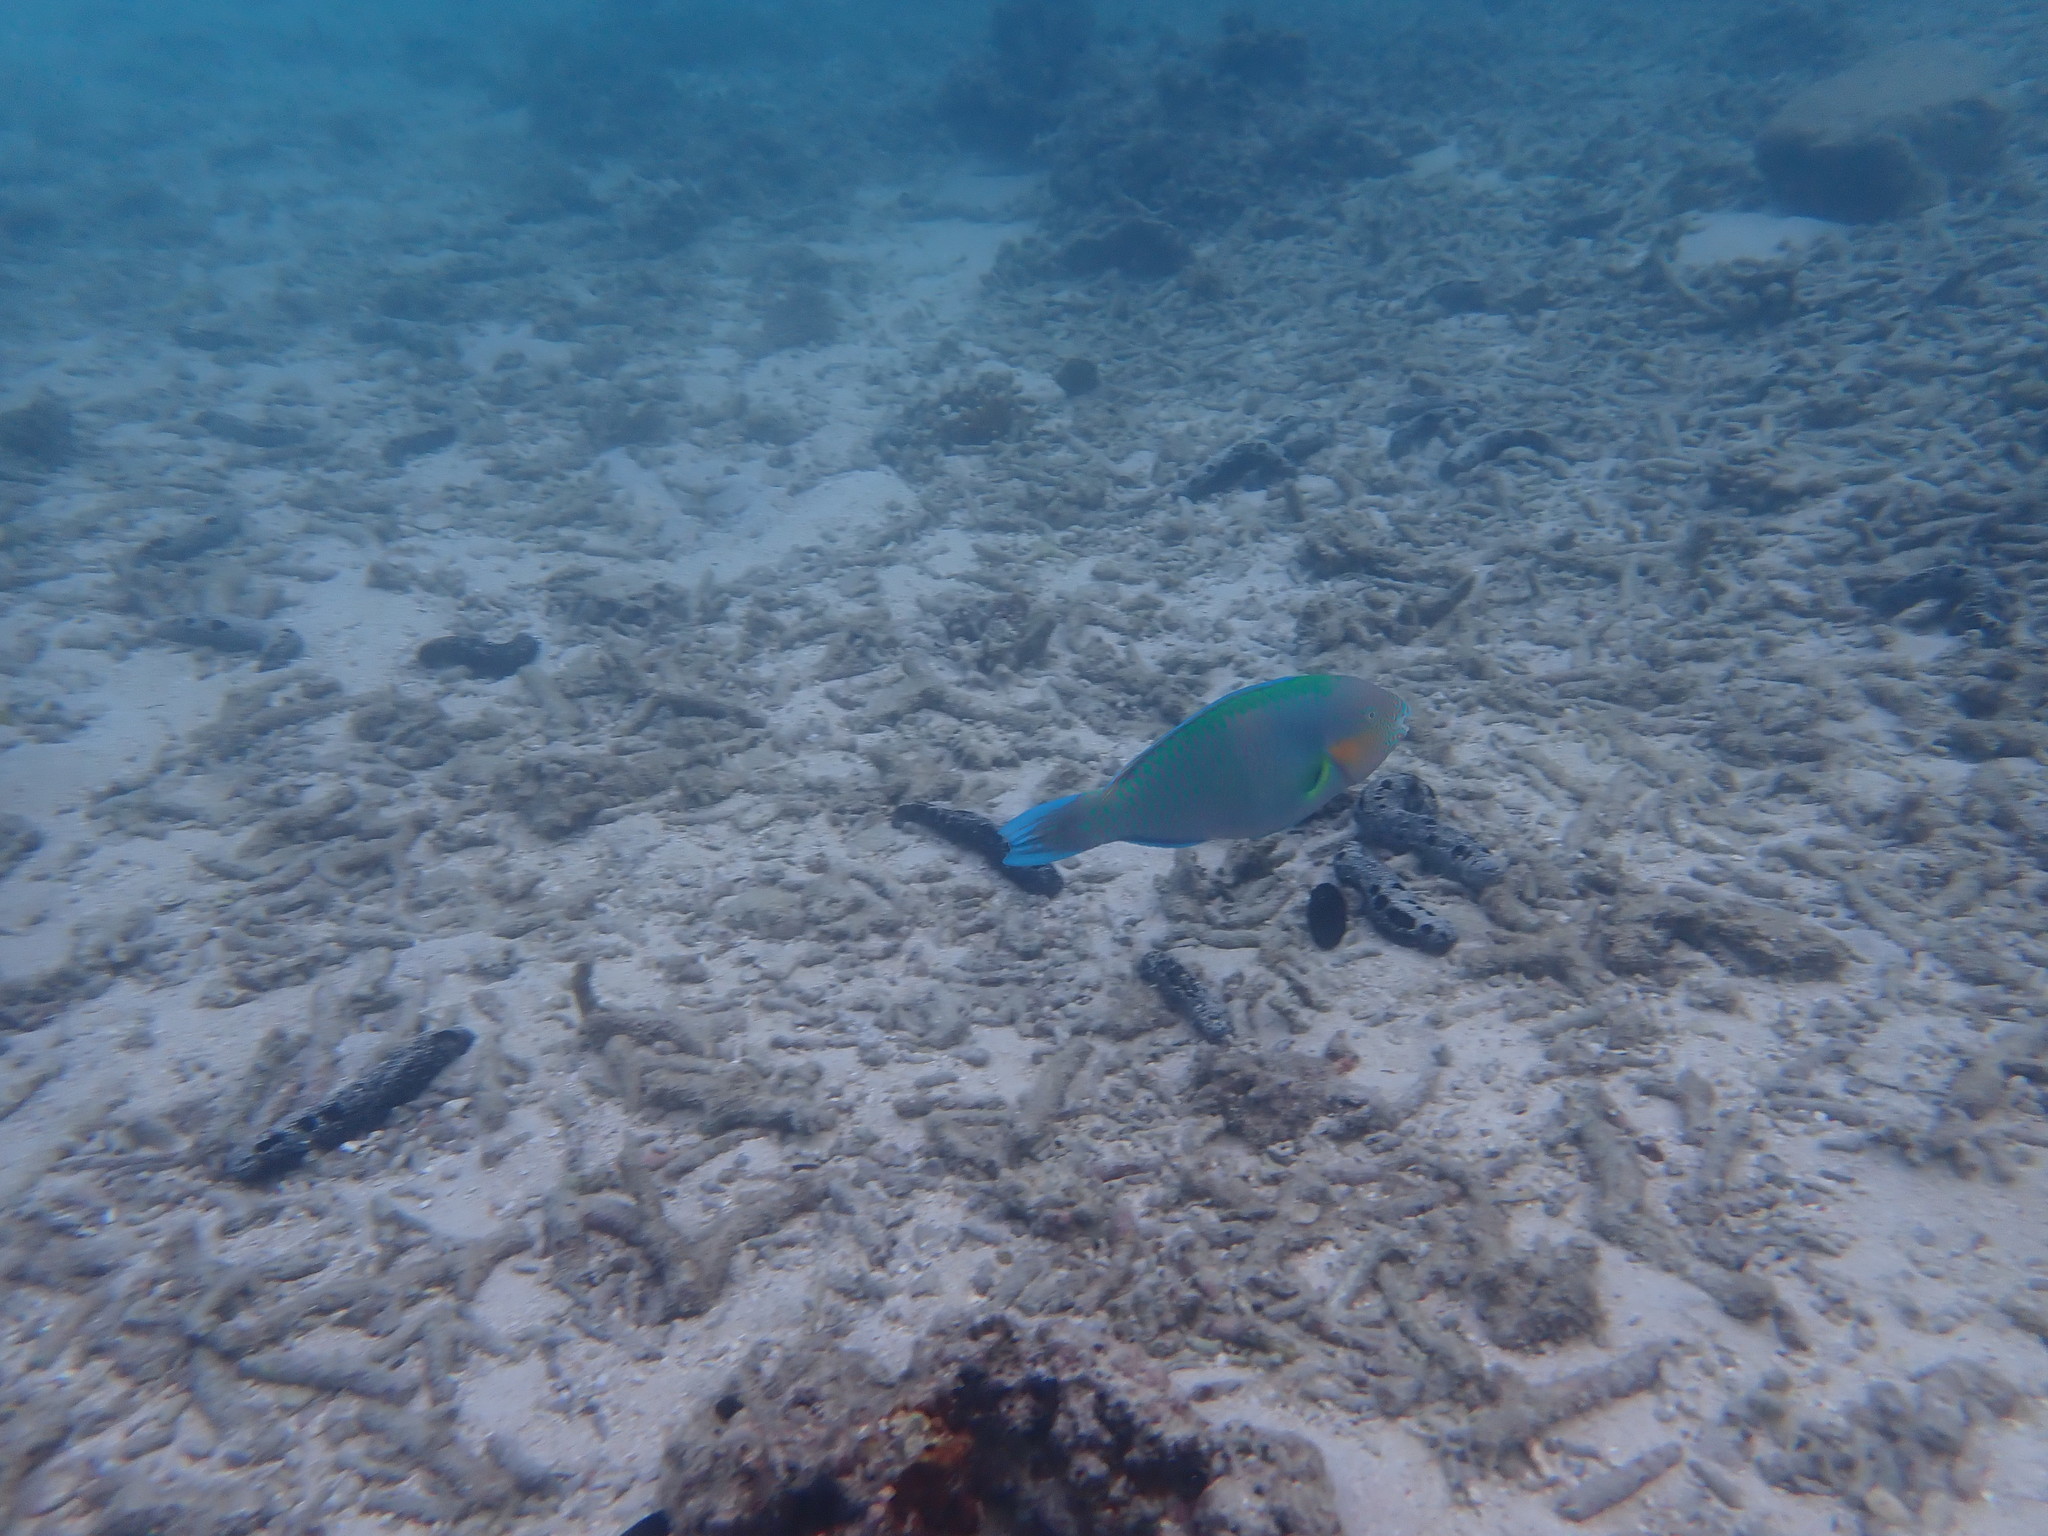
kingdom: Animalia
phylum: Chordata
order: Perciformes
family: Scaridae
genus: Scarus
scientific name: Scarus rivulatus
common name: Surf parrotfish
